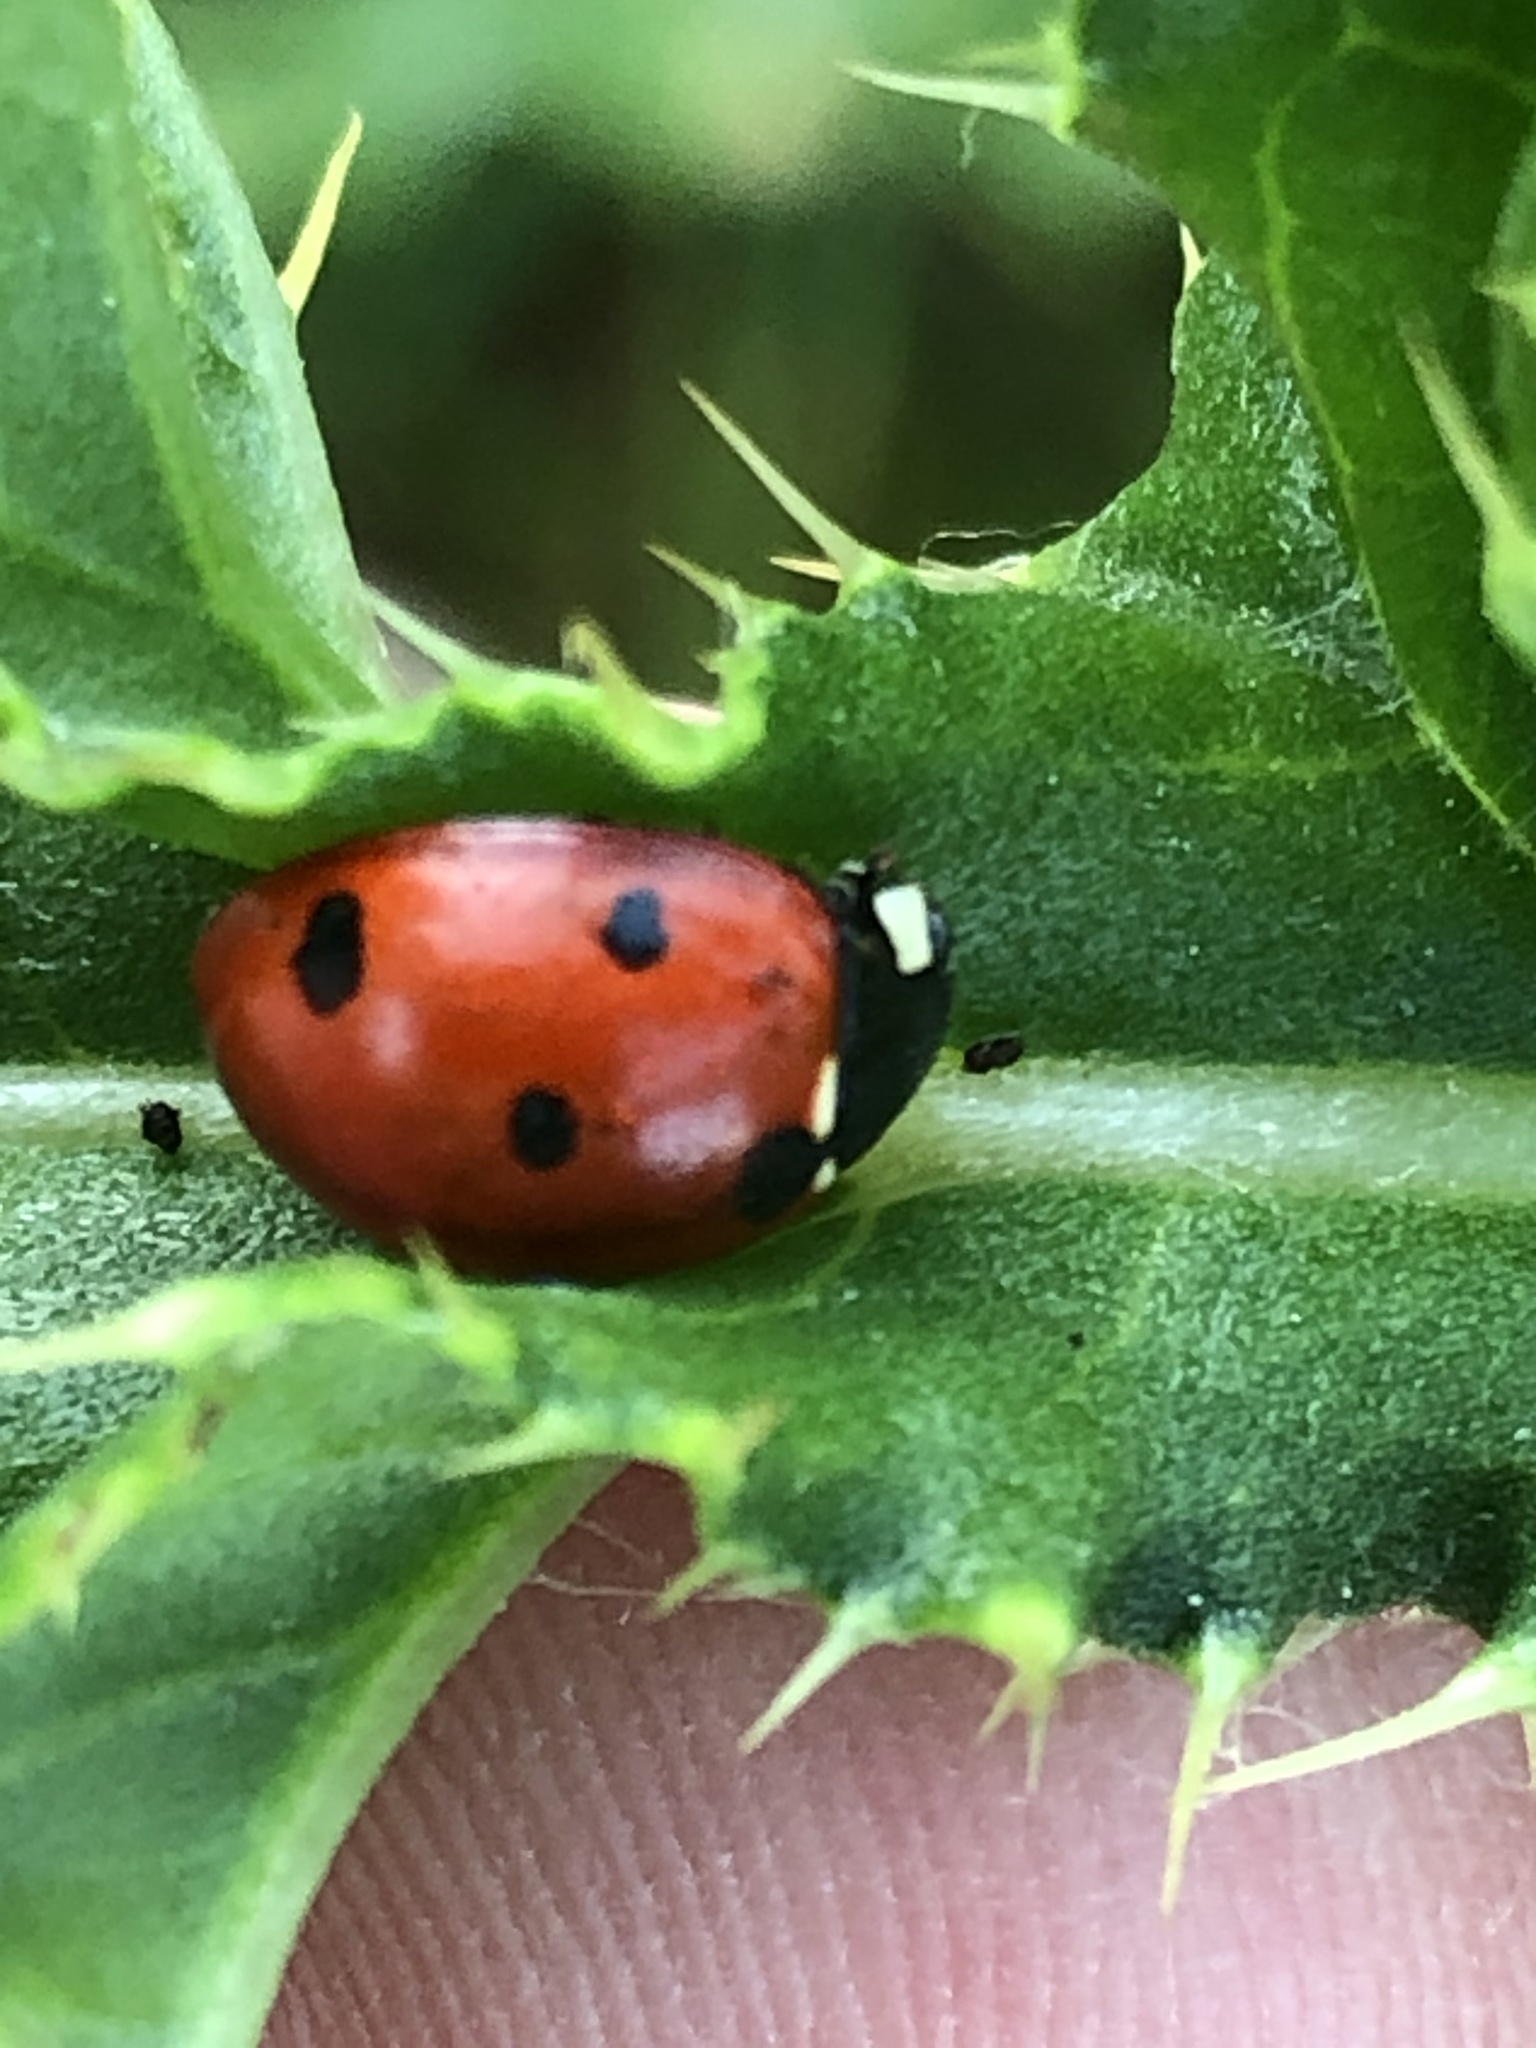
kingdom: Animalia
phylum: Arthropoda
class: Insecta
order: Coleoptera
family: Coccinellidae
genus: Coccinella
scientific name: Coccinella septempunctata
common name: Sevenspotted lady beetle
